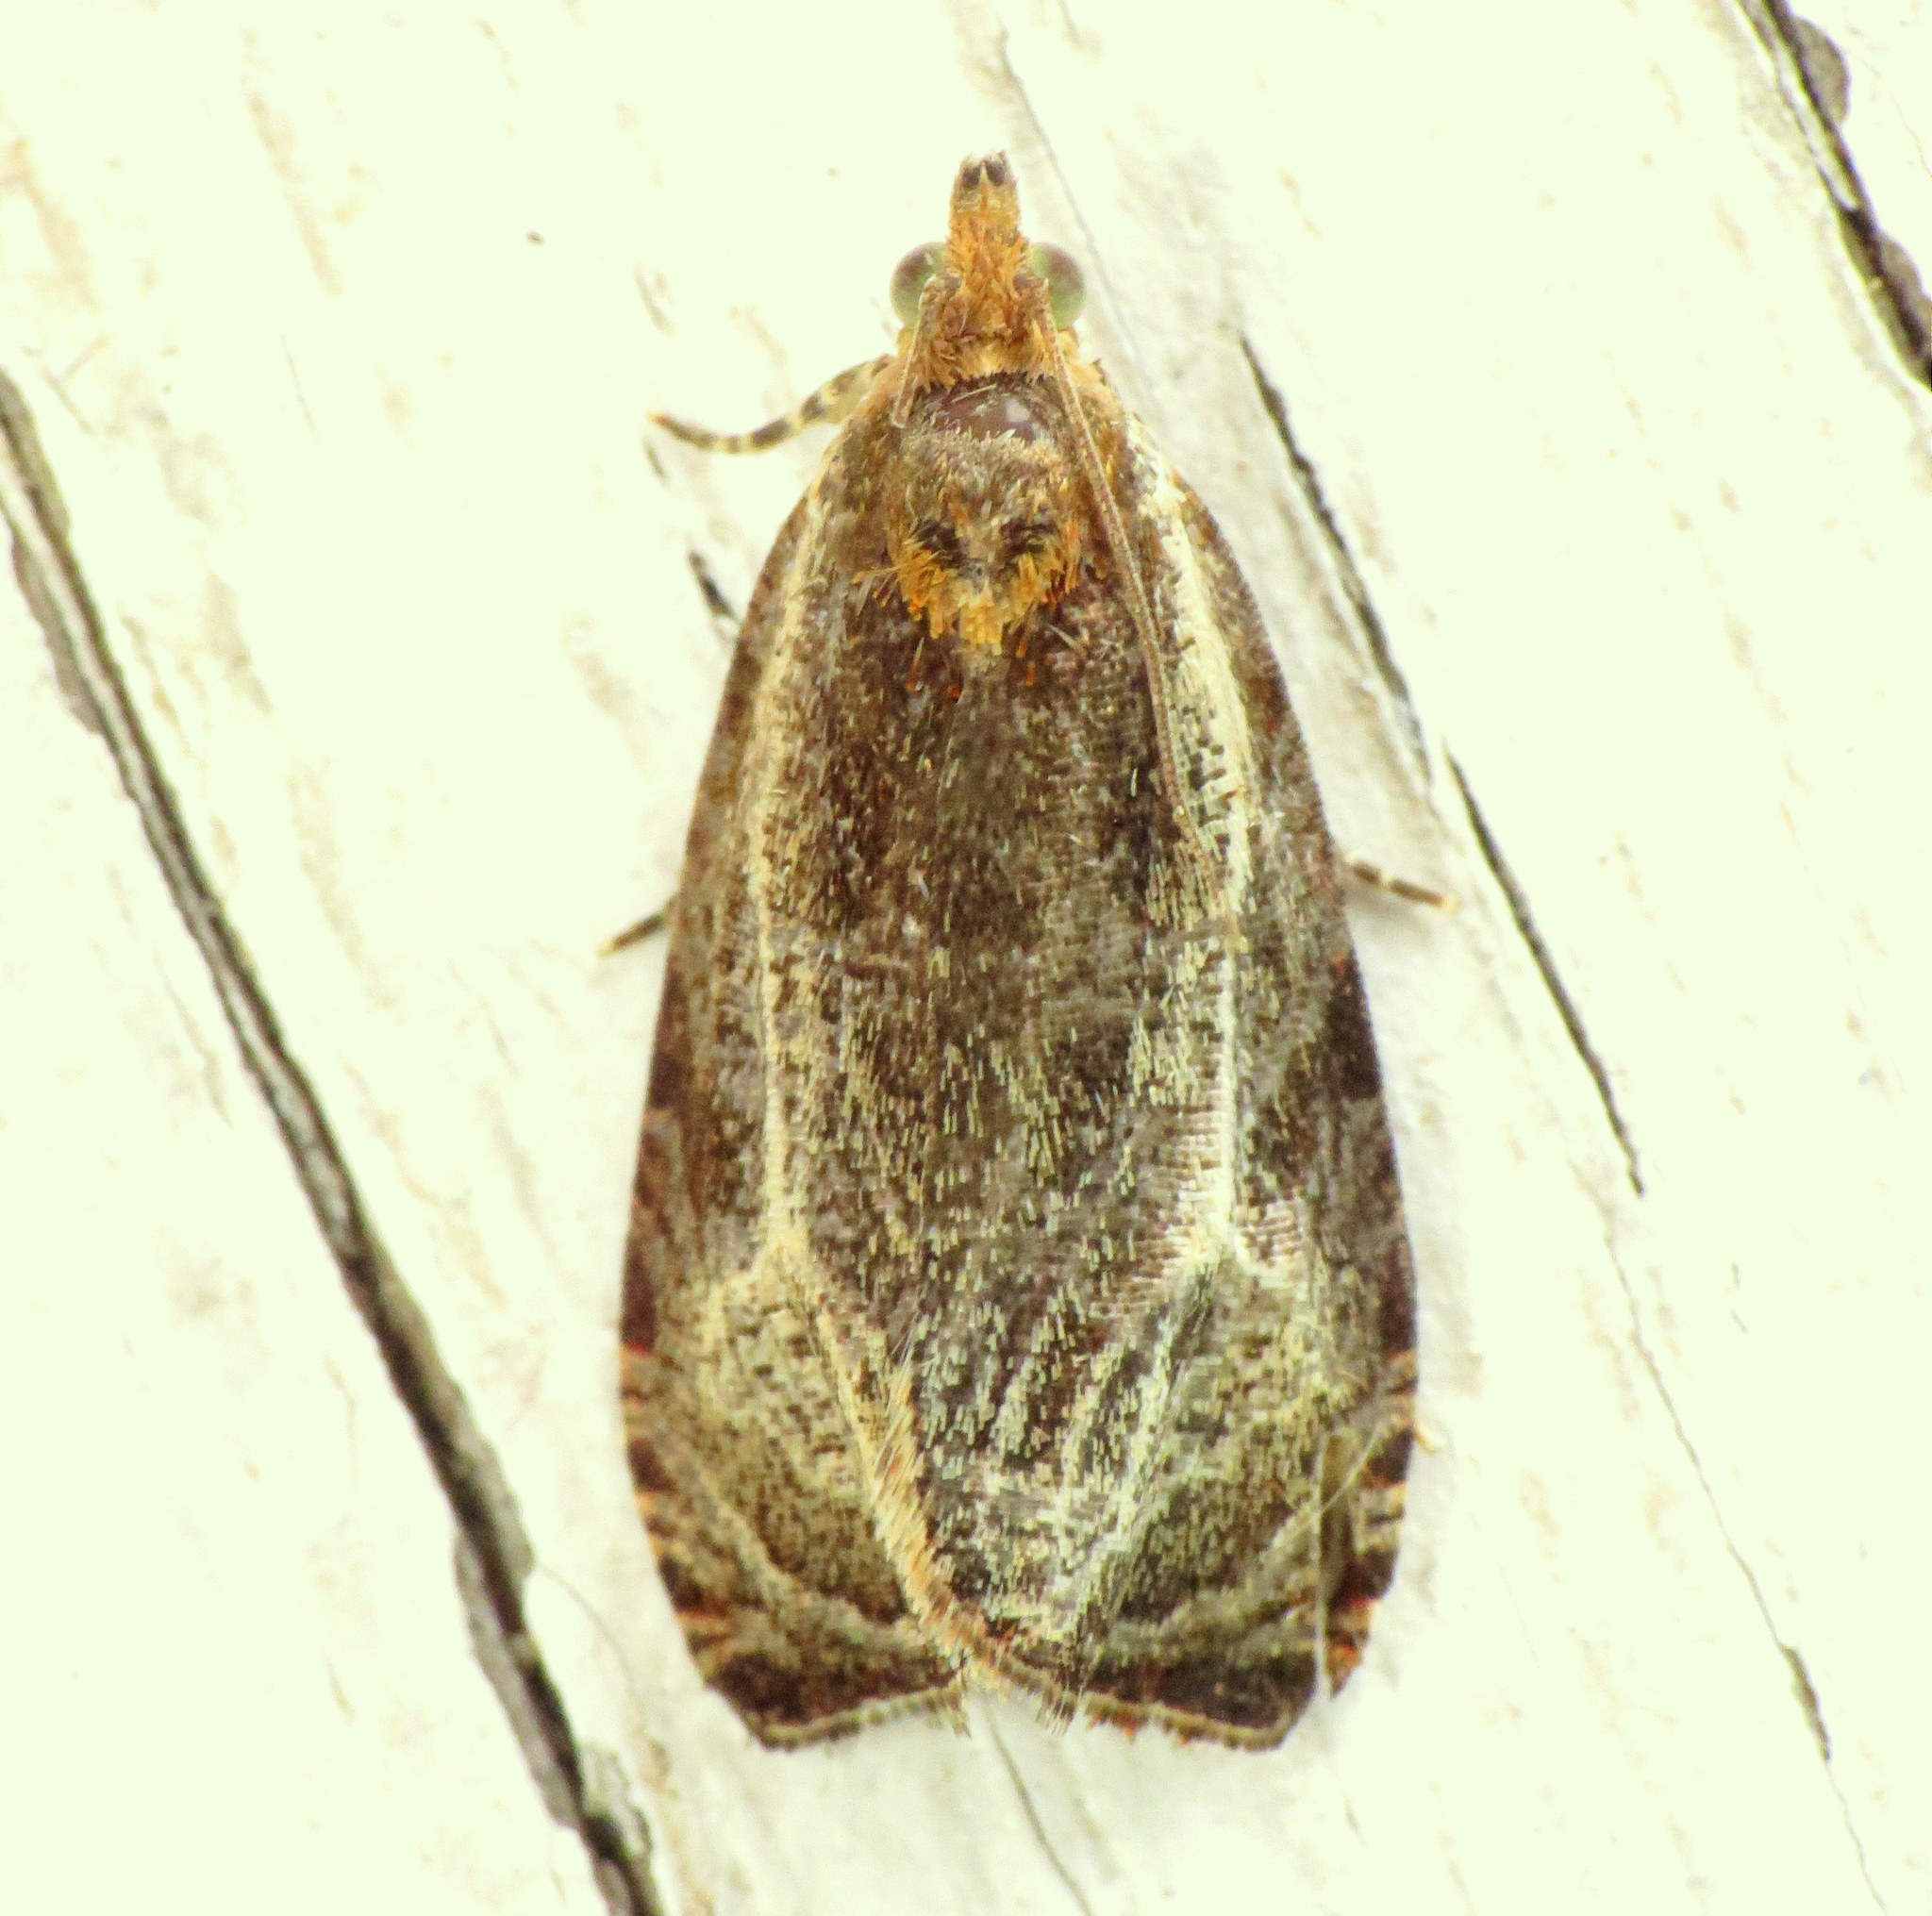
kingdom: Animalia
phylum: Arthropoda
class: Insecta
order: Lepidoptera
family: Tortricidae
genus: Olethreutes
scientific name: Olethreutes quadrifidum
